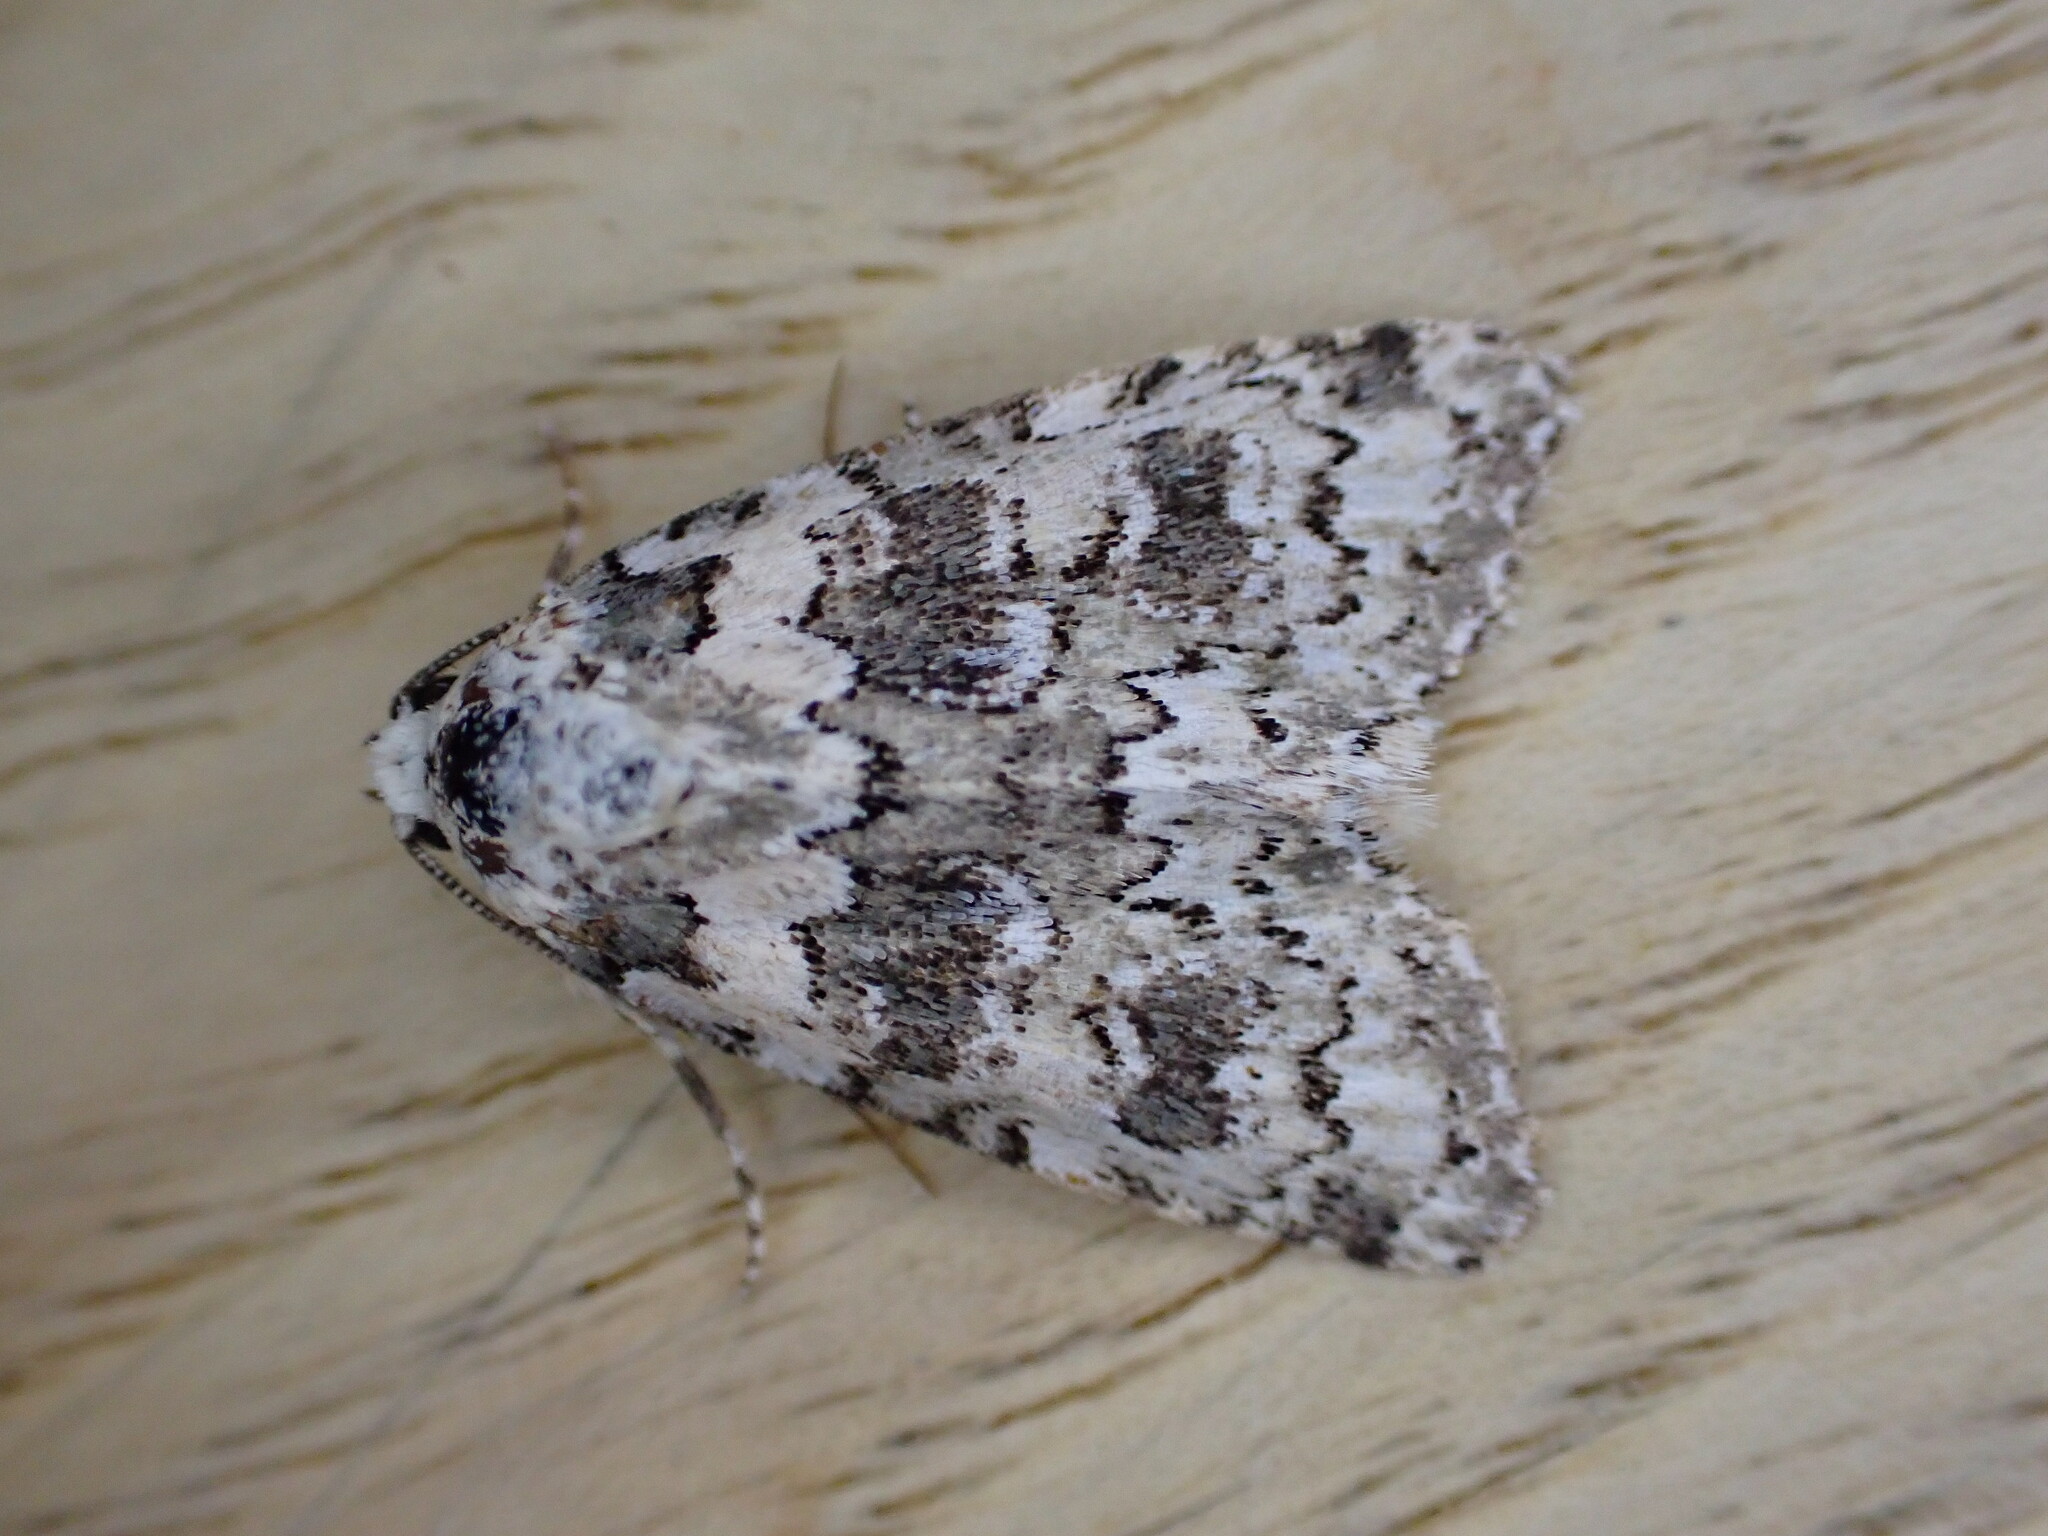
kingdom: Animalia
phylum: Arthropoda
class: Insecta
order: Lepidoptera
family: Noctuidae
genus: Bryophila
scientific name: Bryophila domestica
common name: Marbled beauty
